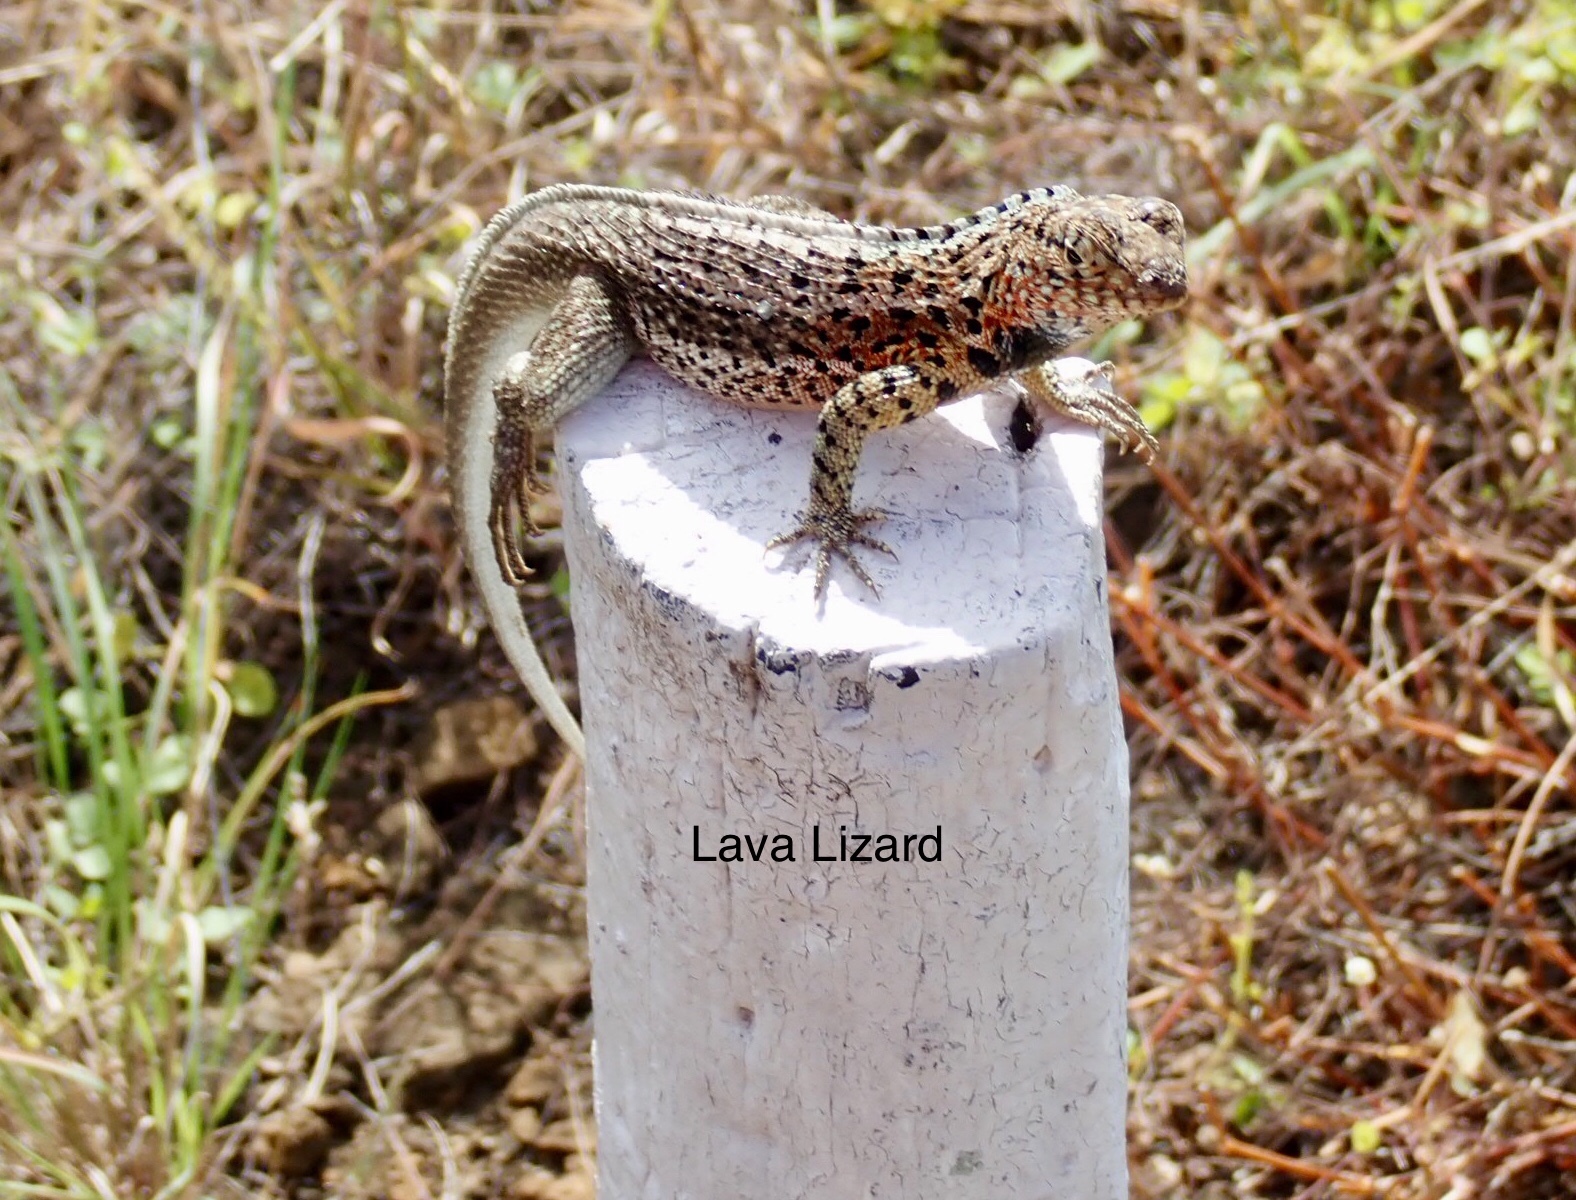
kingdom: Animalia
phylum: Chordata
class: Squamata
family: Tropiduridae
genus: Microlophus
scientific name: Microlophus jacobii
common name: Santiago lava lizard
